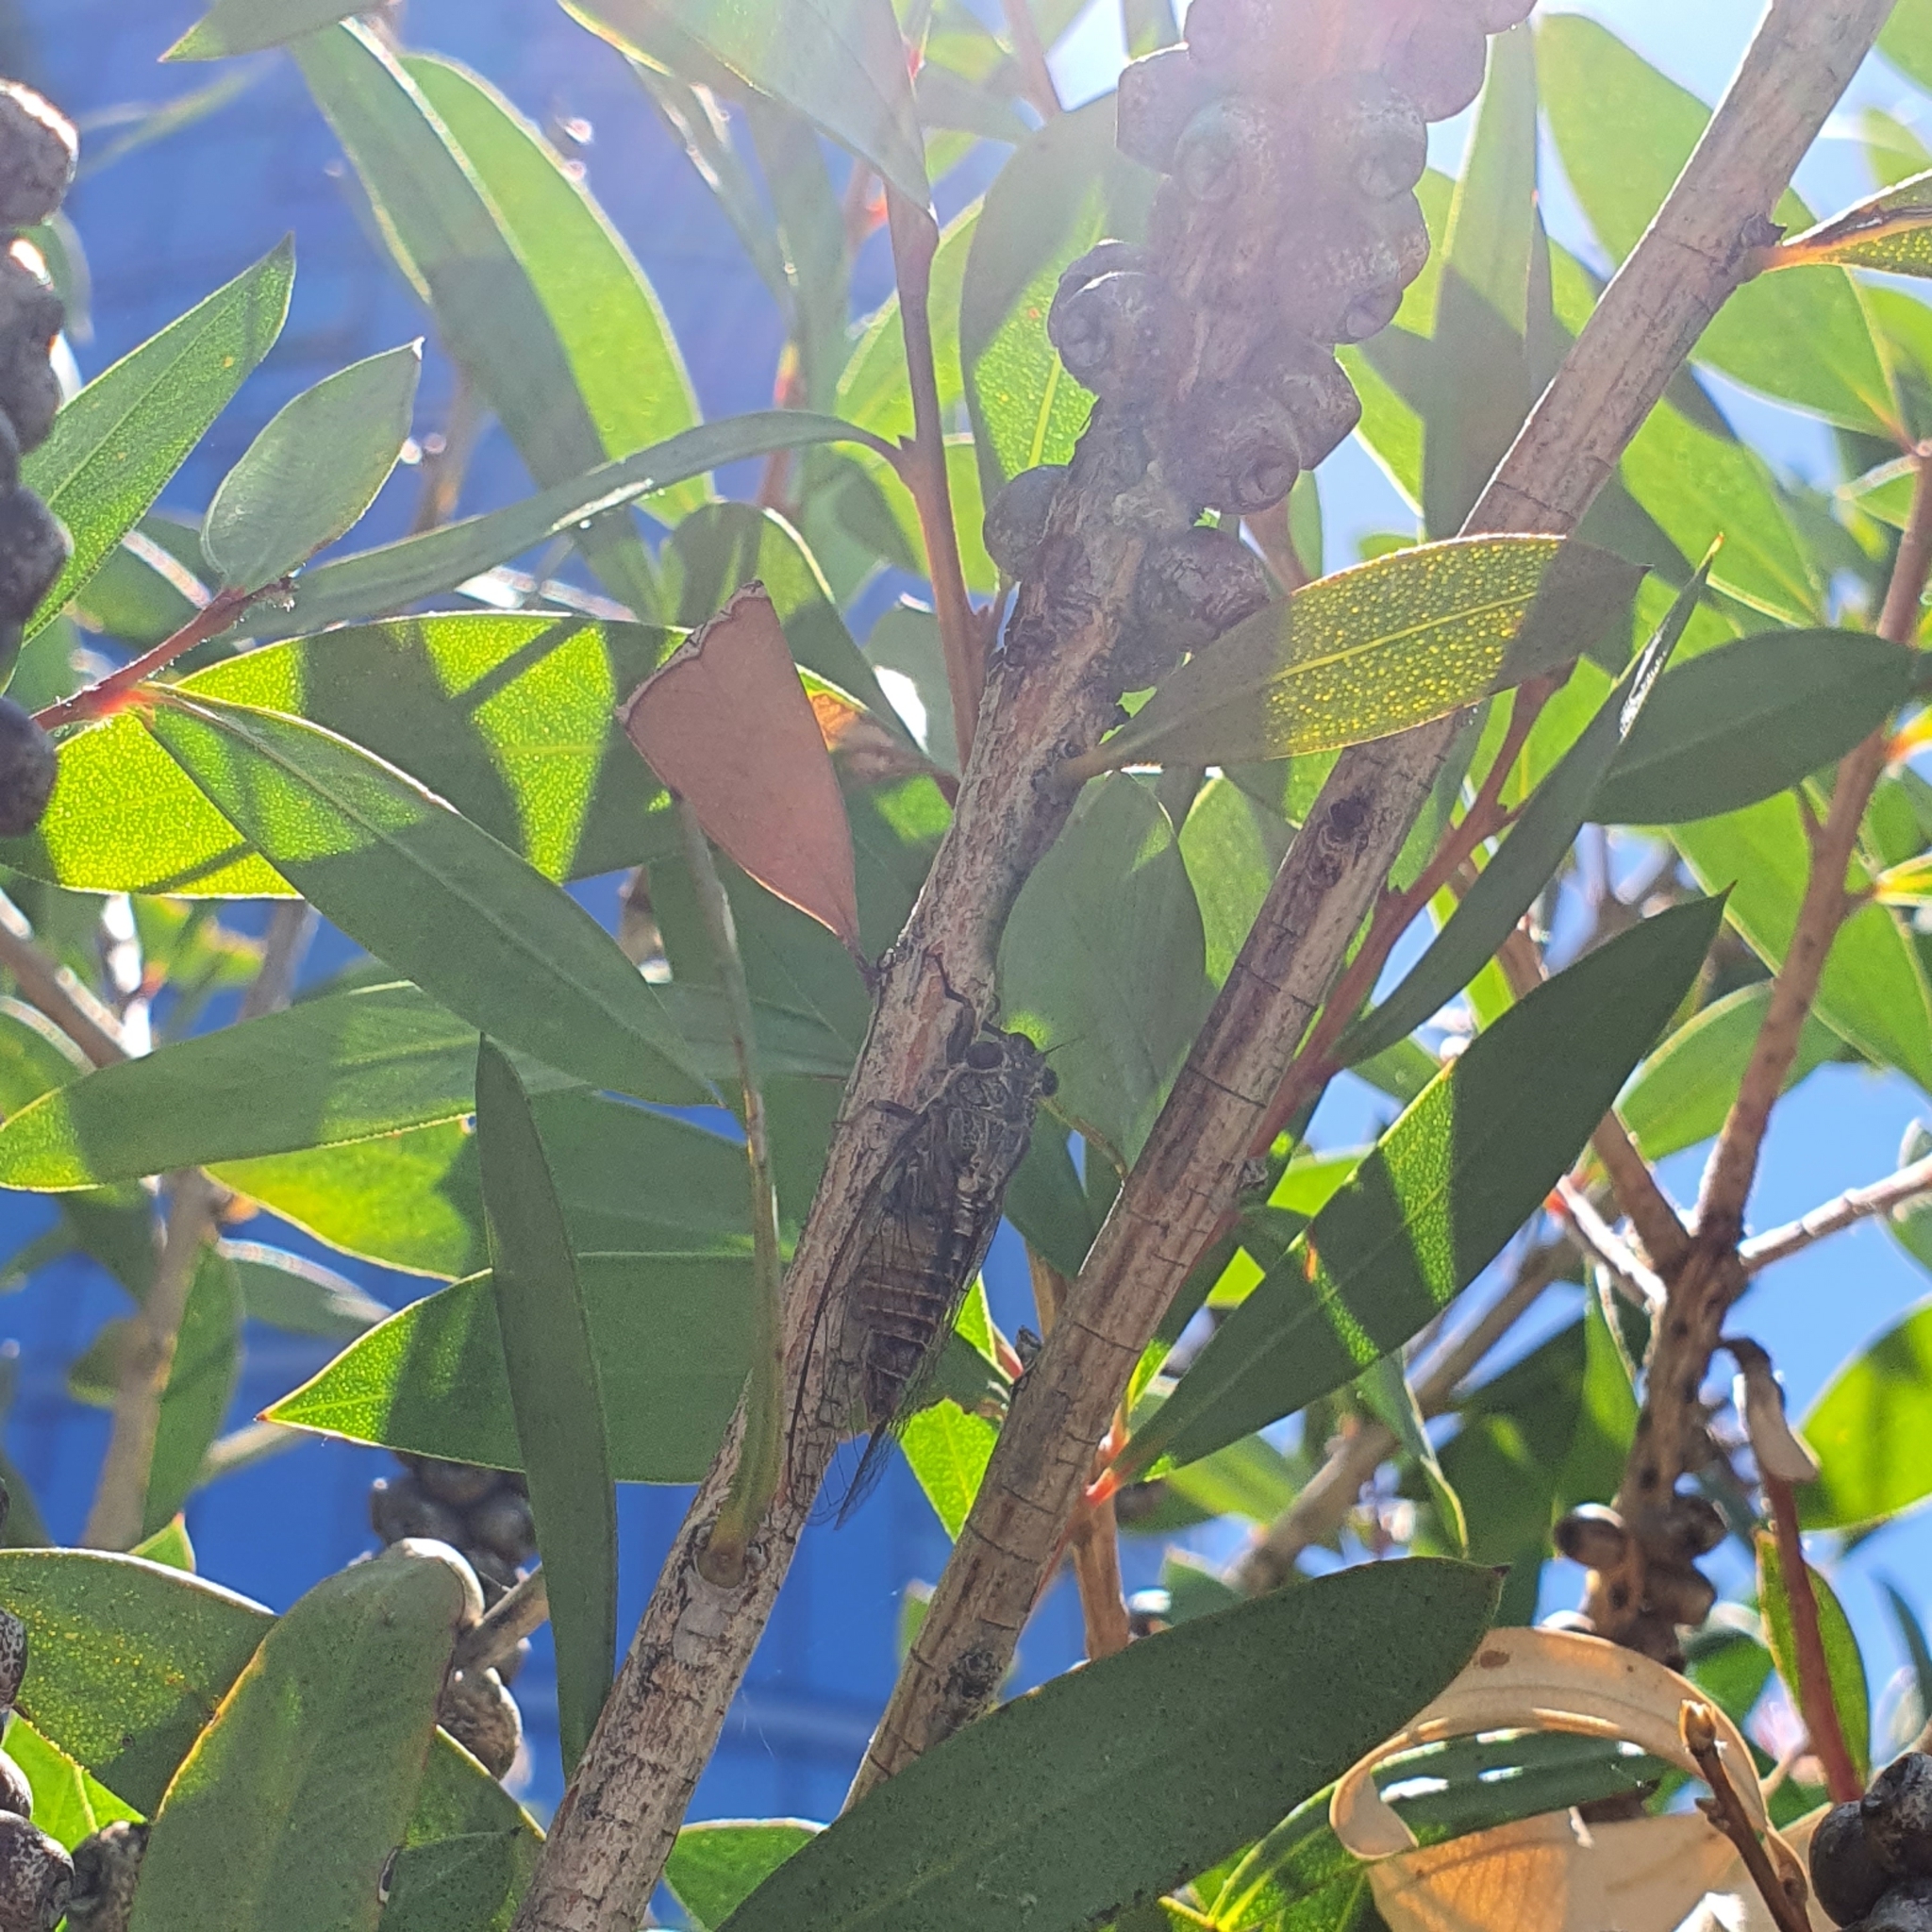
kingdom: Animalia
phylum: Arthropoda
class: Insecta
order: Hemiptera
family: Cicadidae
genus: Yoyetta
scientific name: Yoyetta celis
